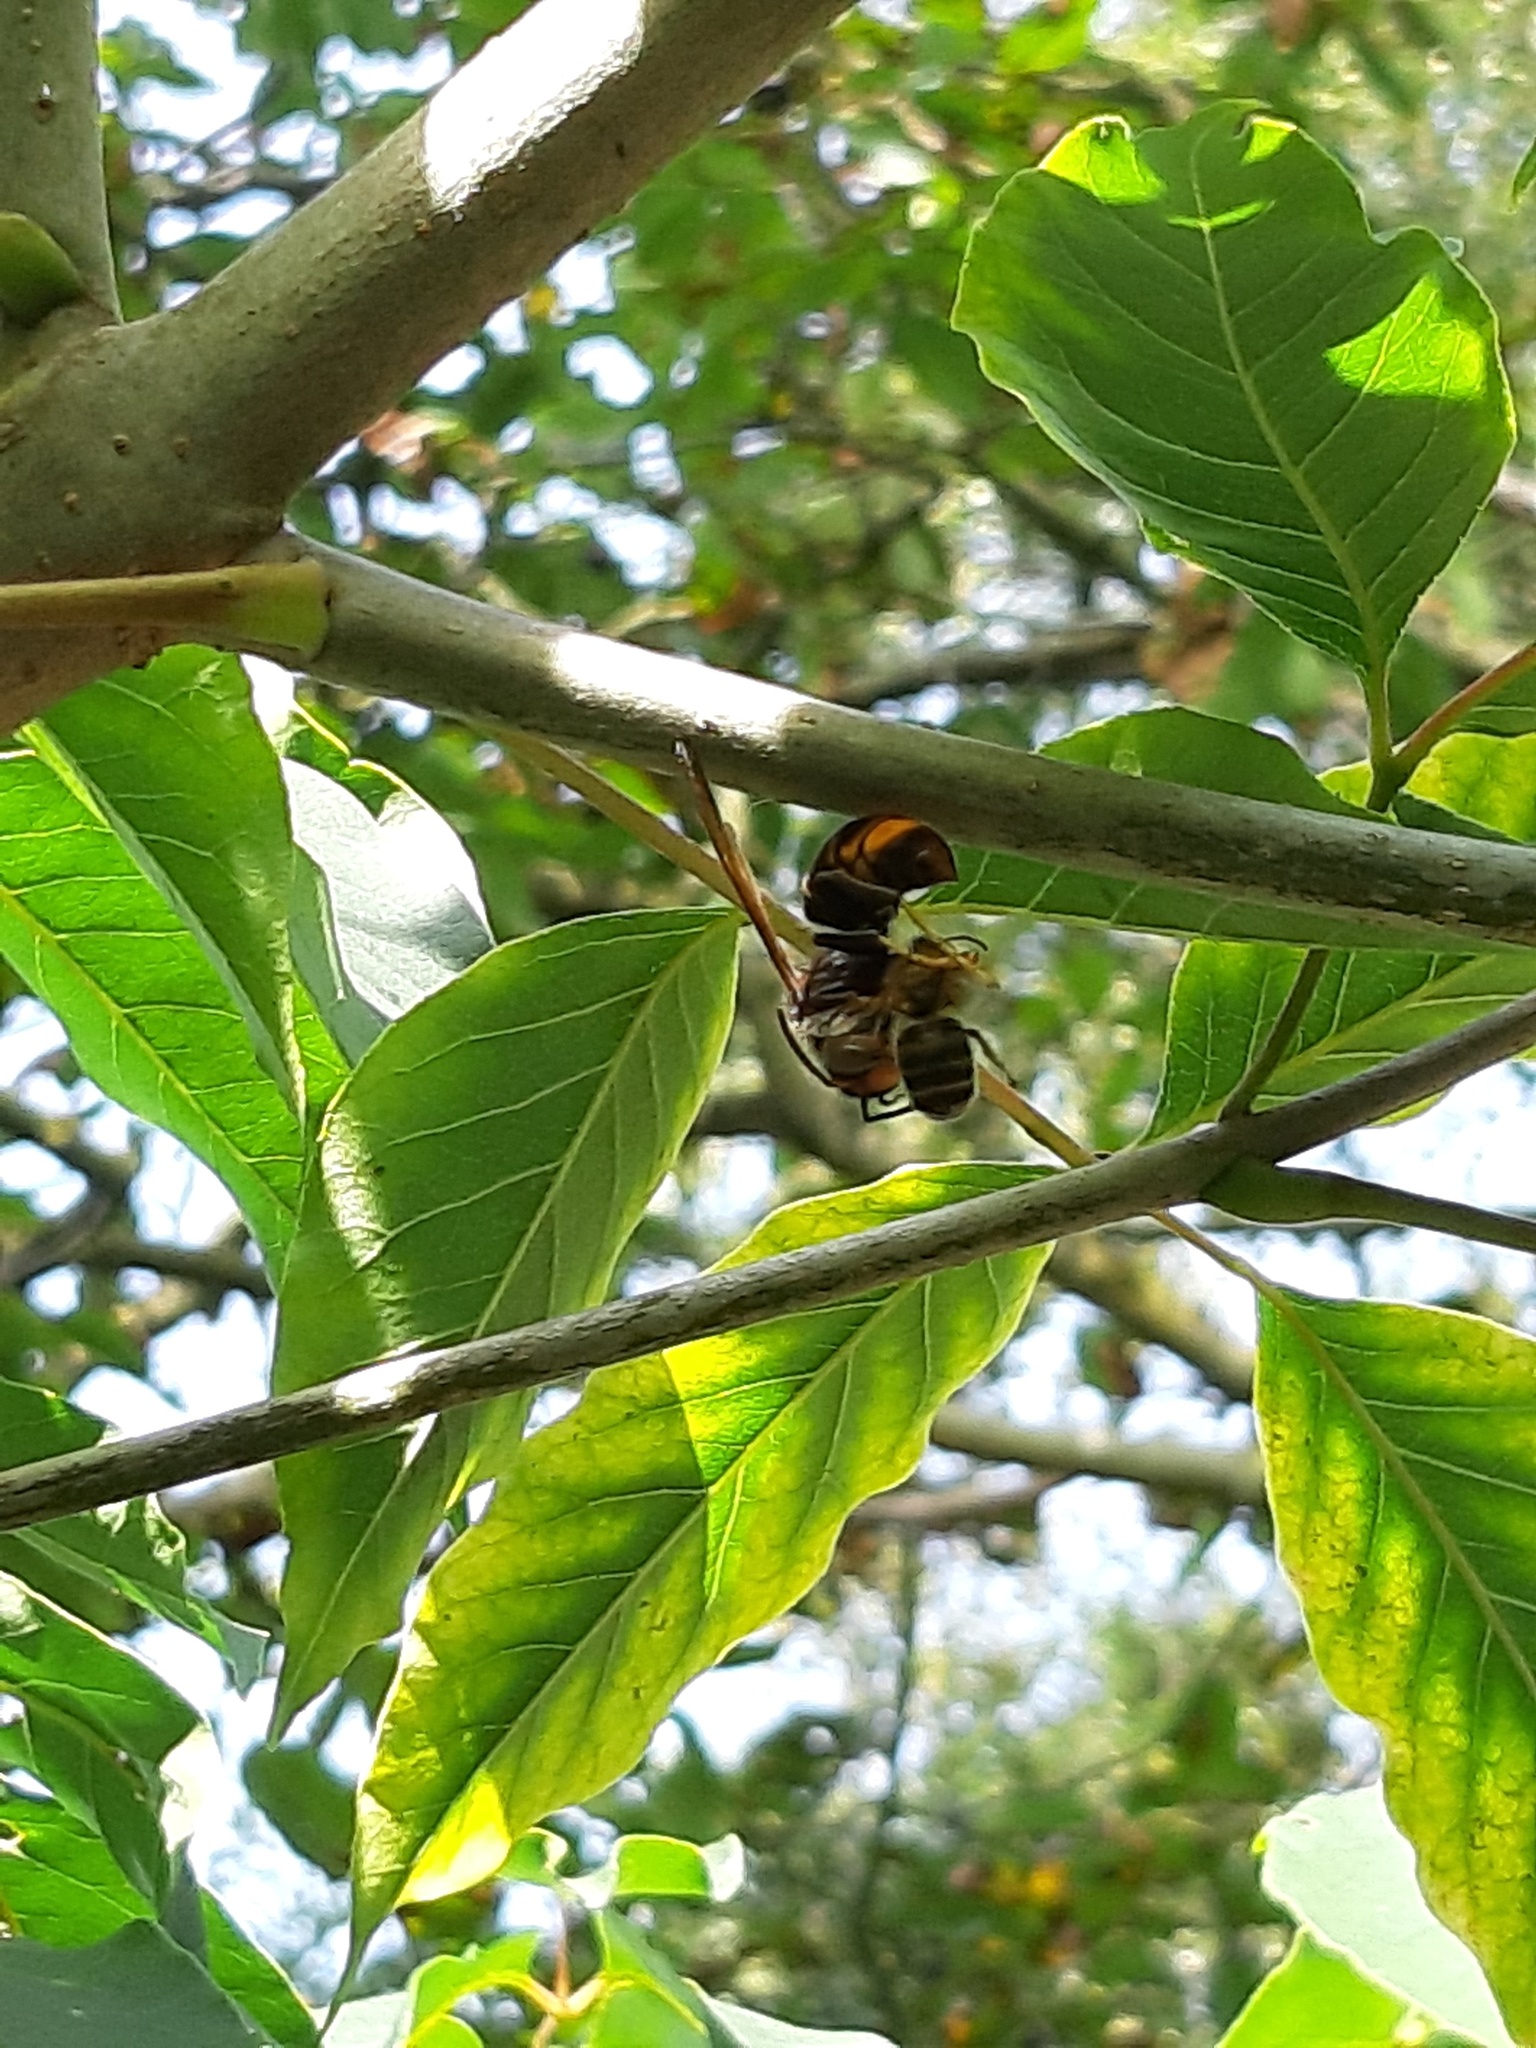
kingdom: Animalia
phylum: Arthropoda
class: Insecta
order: Hymenoptera
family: Vespidae
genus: Vespa
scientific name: Vespa velutina
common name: Asian hornet
